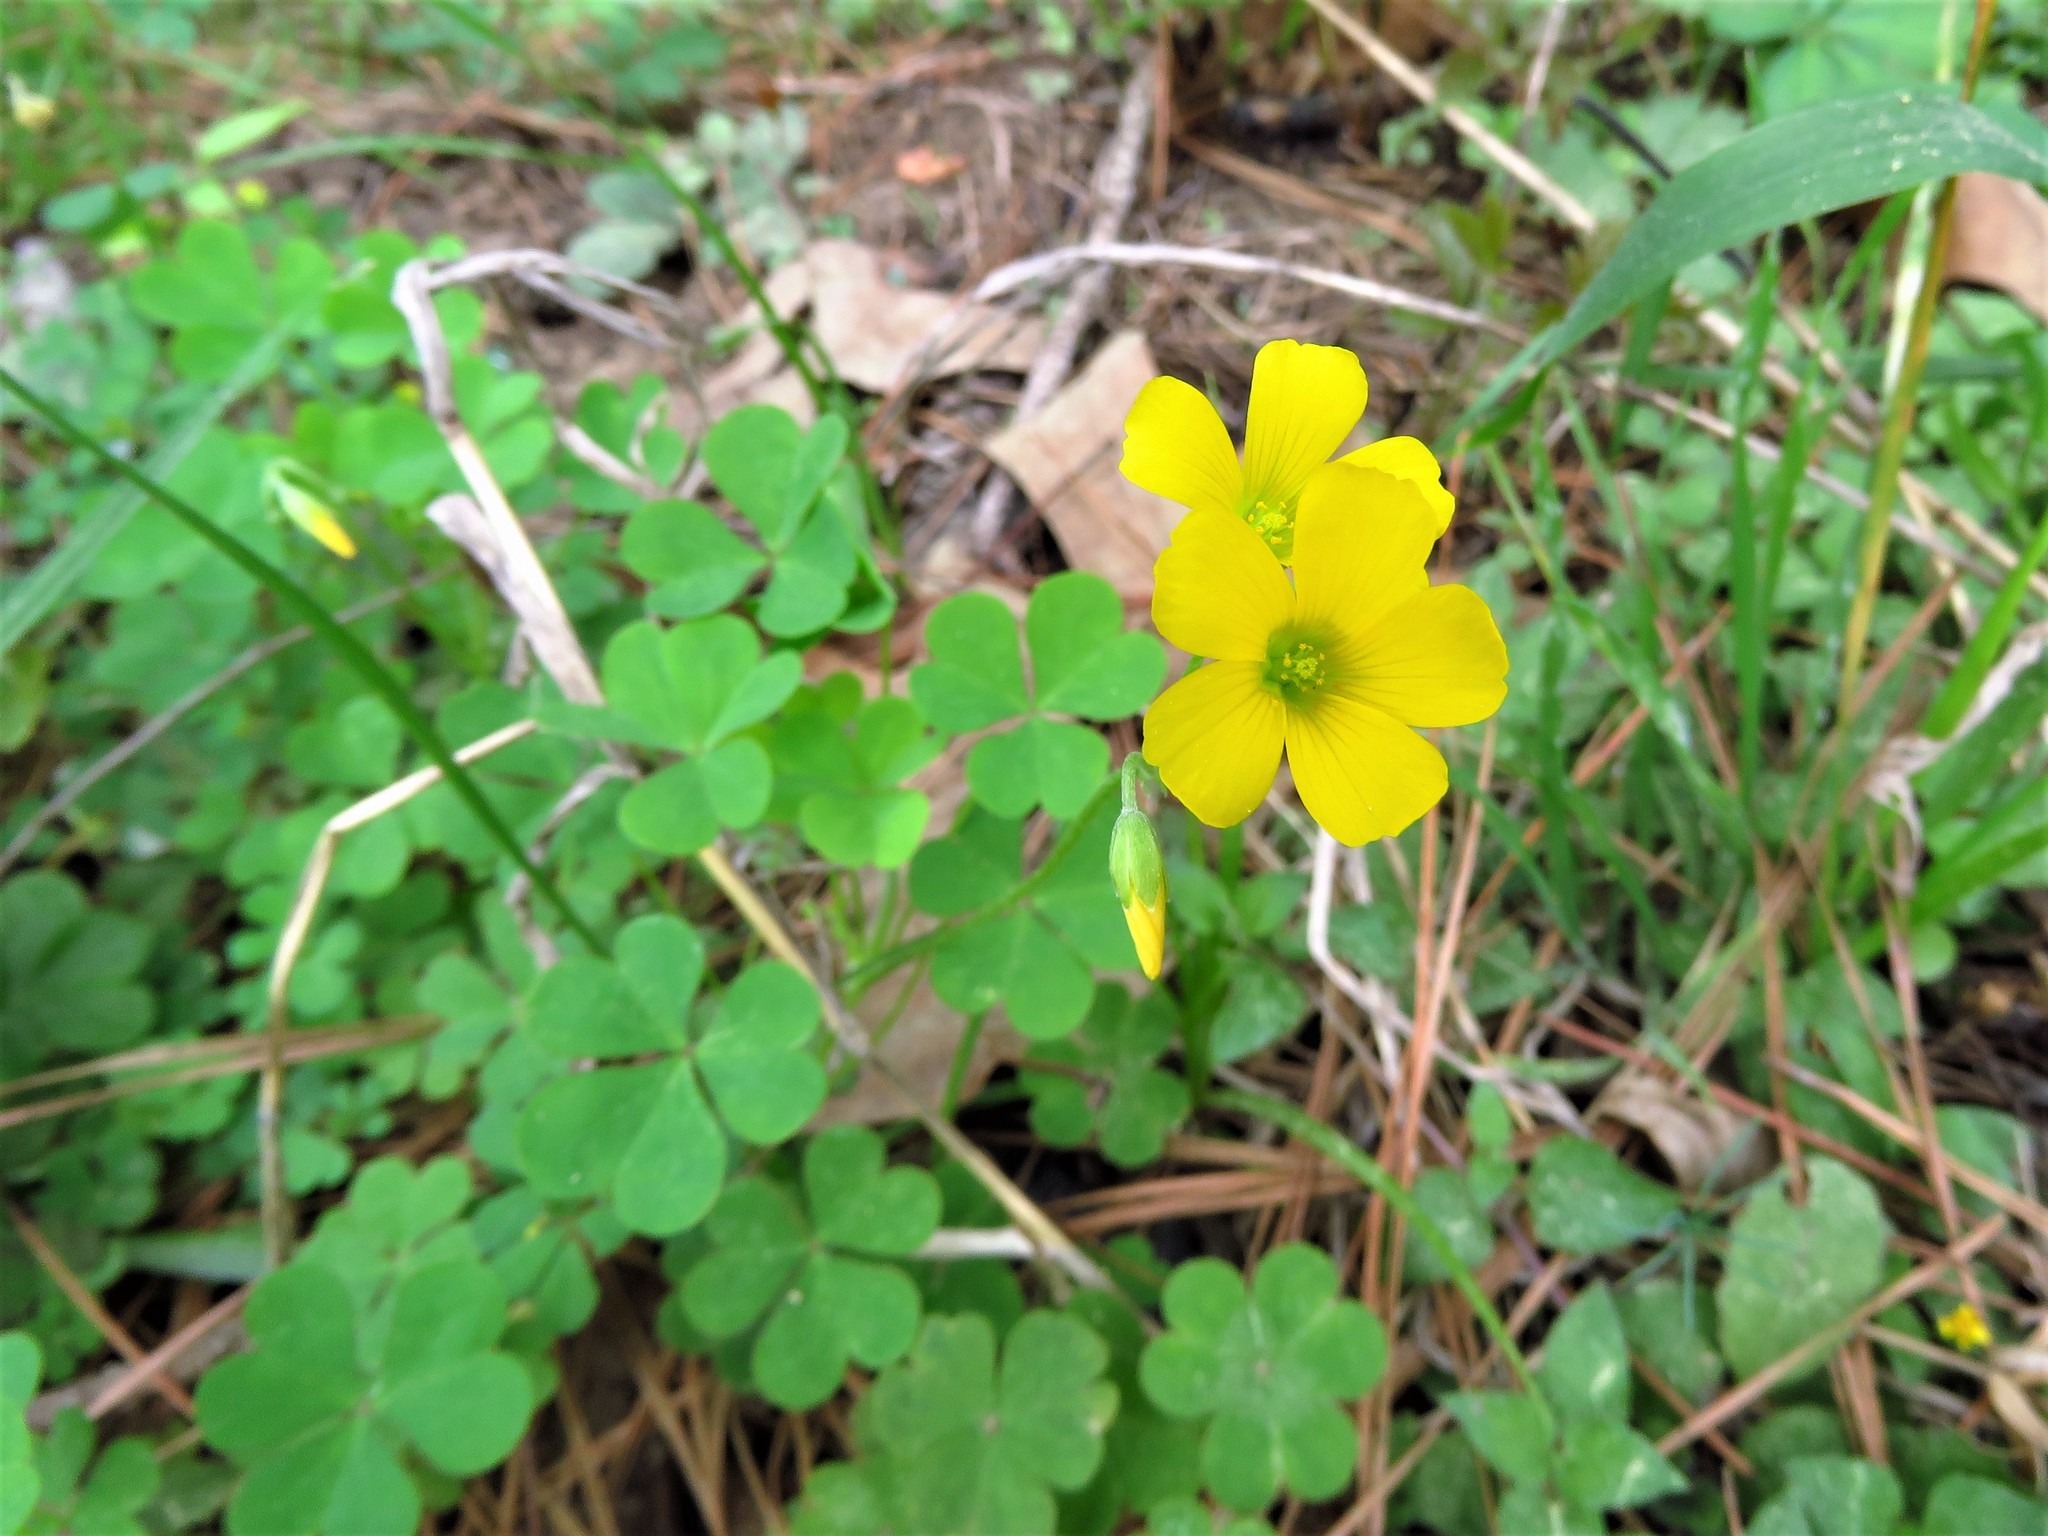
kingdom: Plantae
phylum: Tracheophyta
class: Magnoliopsida
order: Oxalidales
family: Oxalidaceae
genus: Oxalis
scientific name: Oxalis dillenii
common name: Sussex yellow-sorrel
